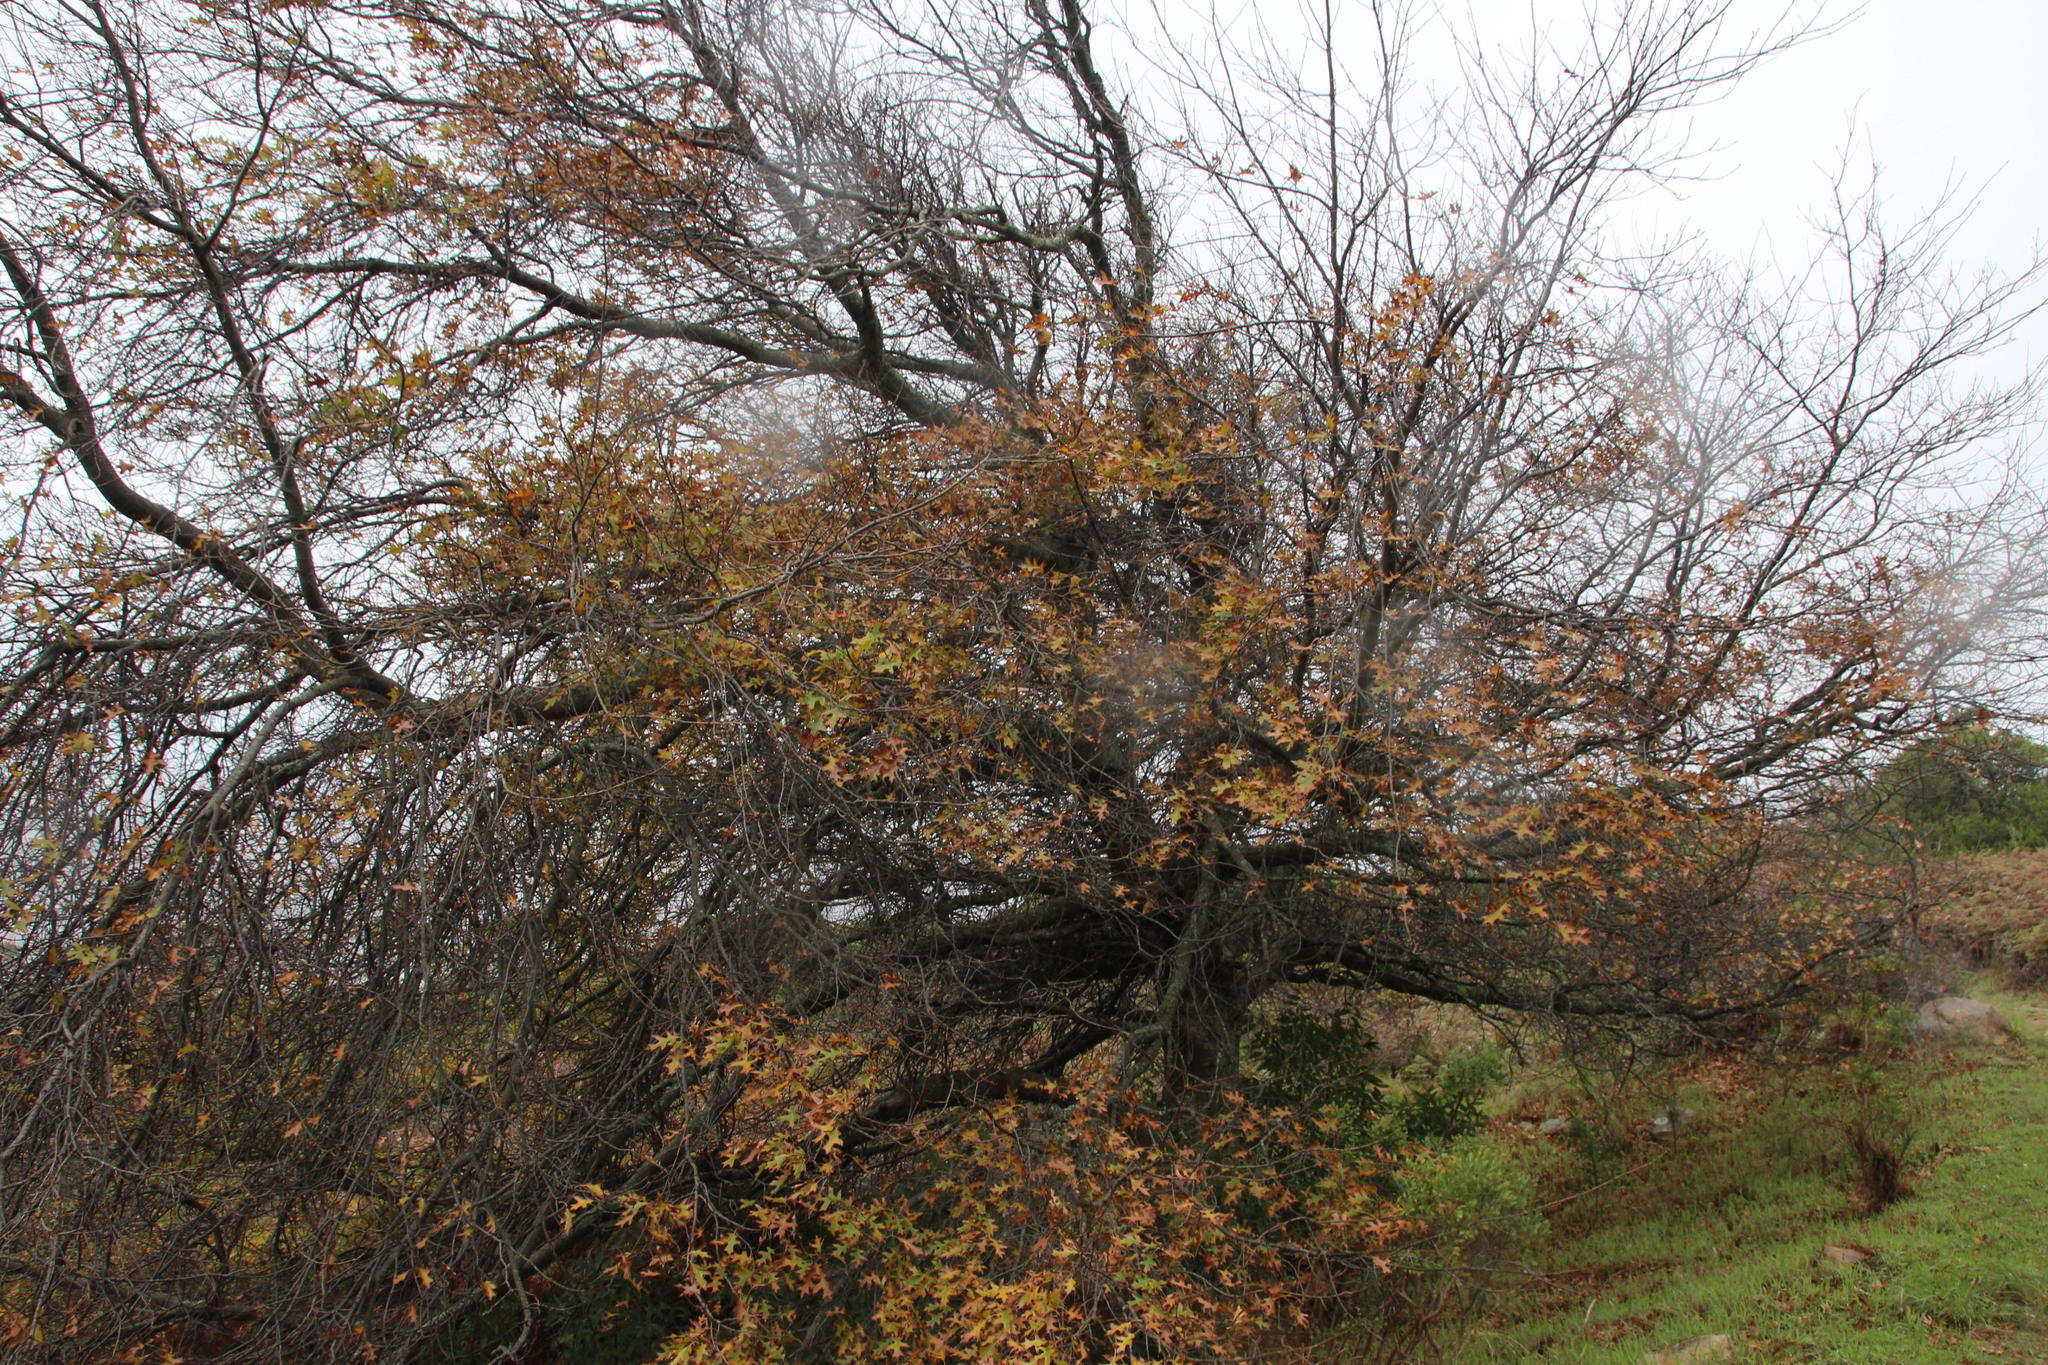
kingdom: Plantae
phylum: Tracheophyta
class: Magnoliopsida
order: Fagales
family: Fagaceae
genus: Quercus
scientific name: Quercus palustris
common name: Pin oak
